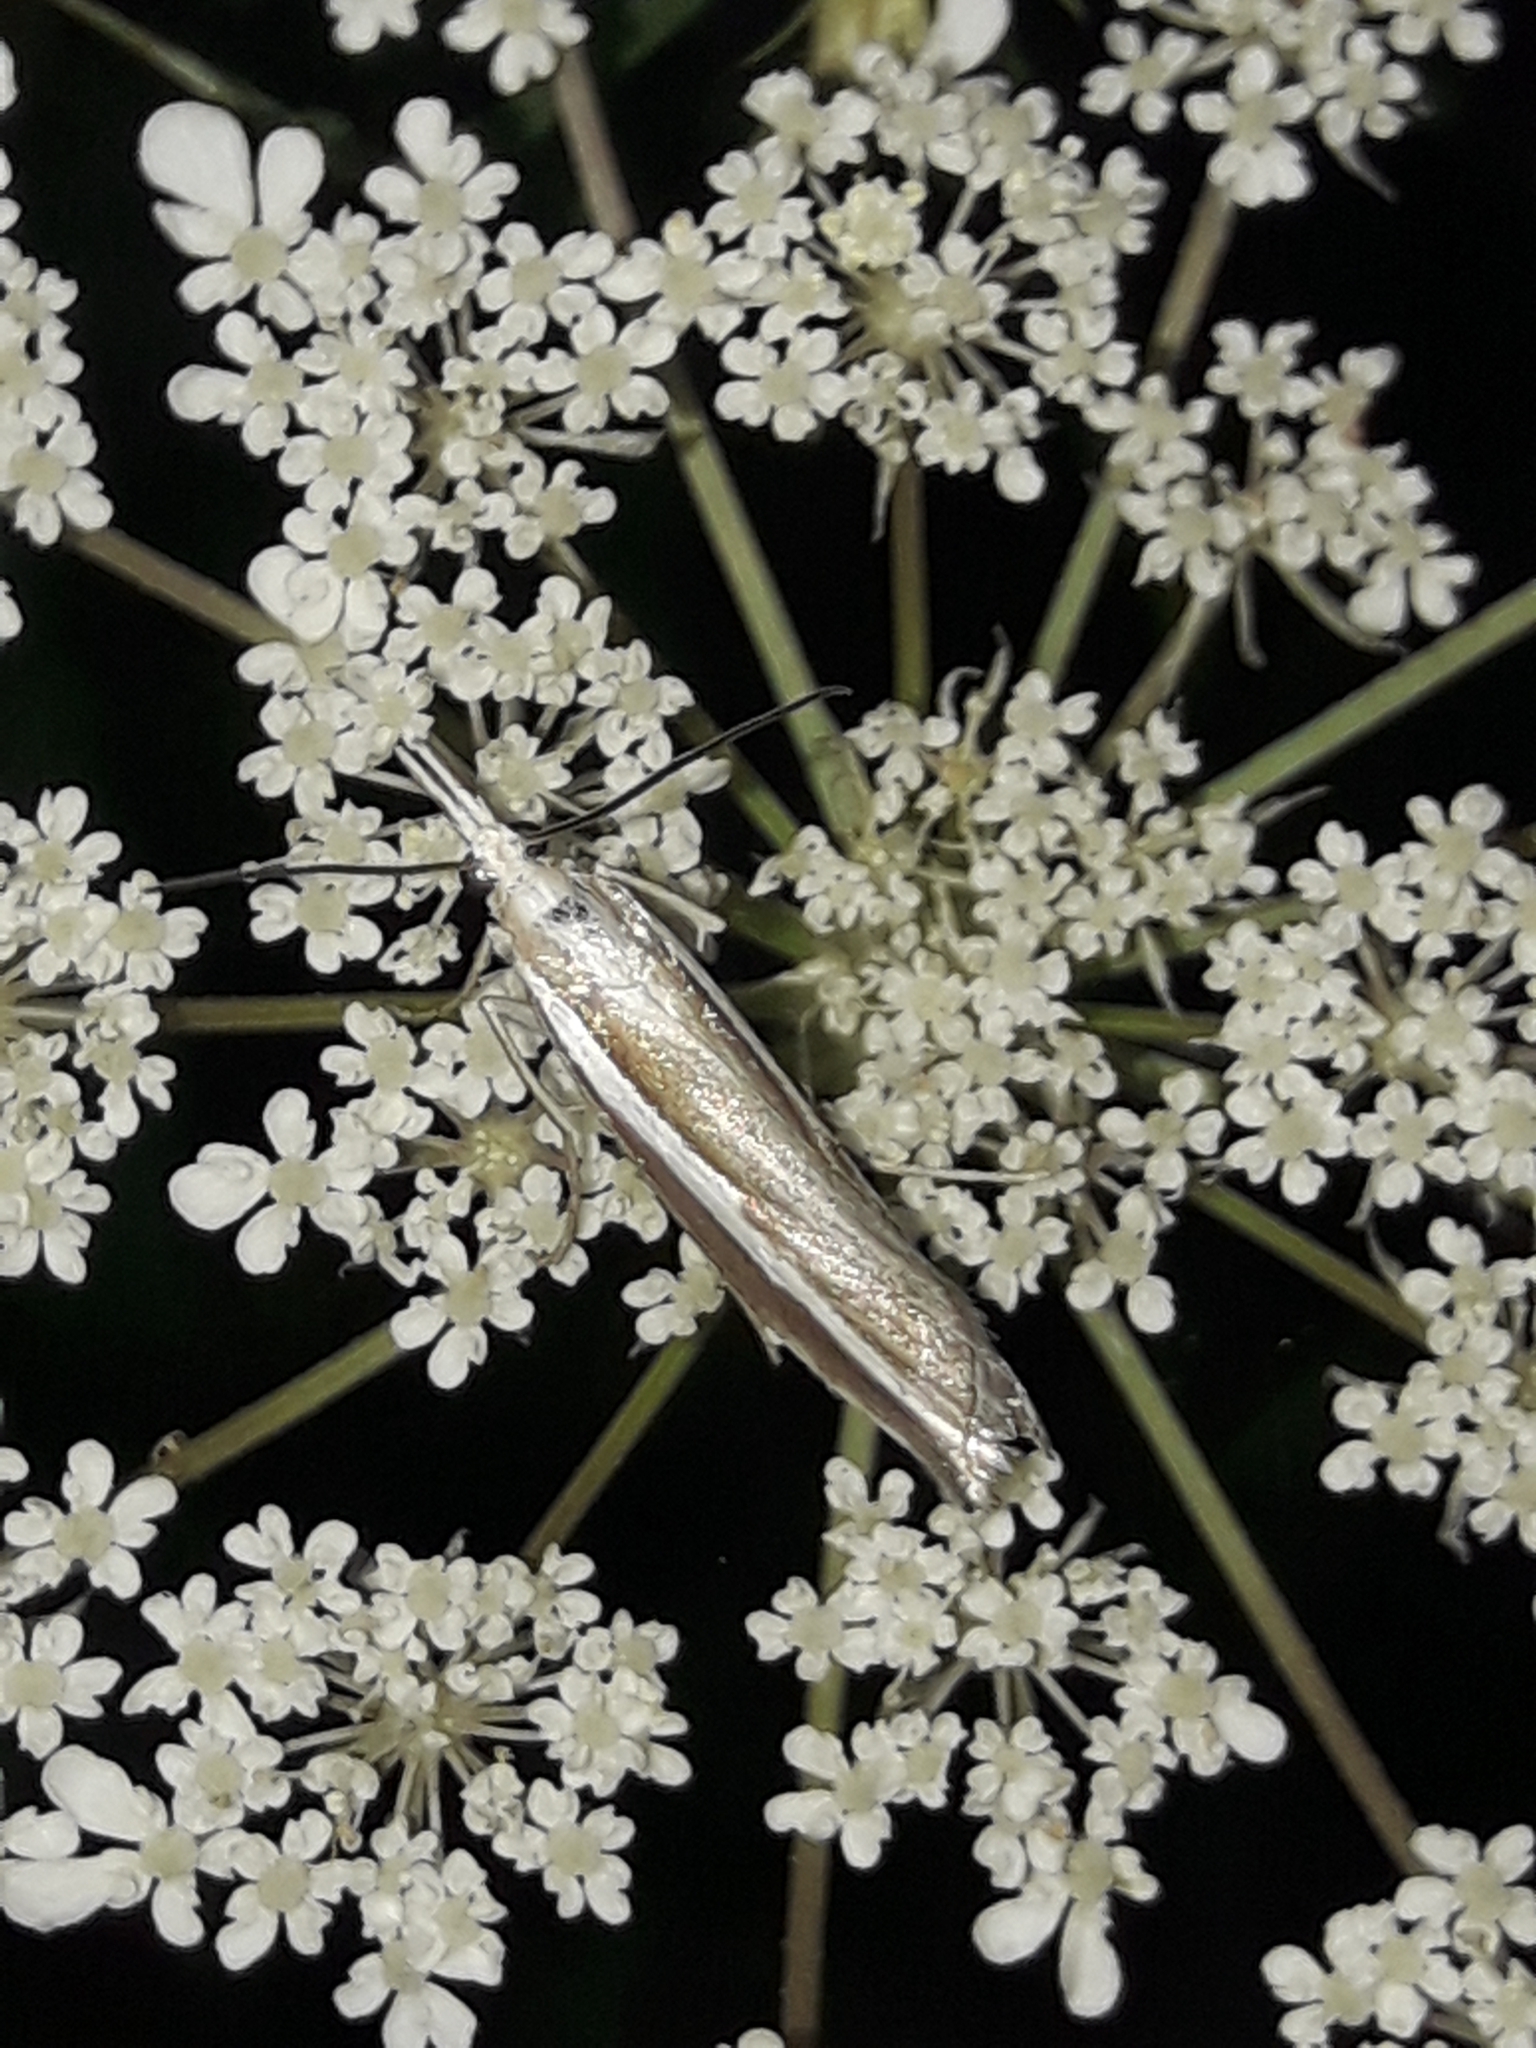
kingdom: Animalia
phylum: Arthropoda
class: Insecta
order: Lepidoptera
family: Crambidae
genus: Orocrambus
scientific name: Orocrambus vittellus
